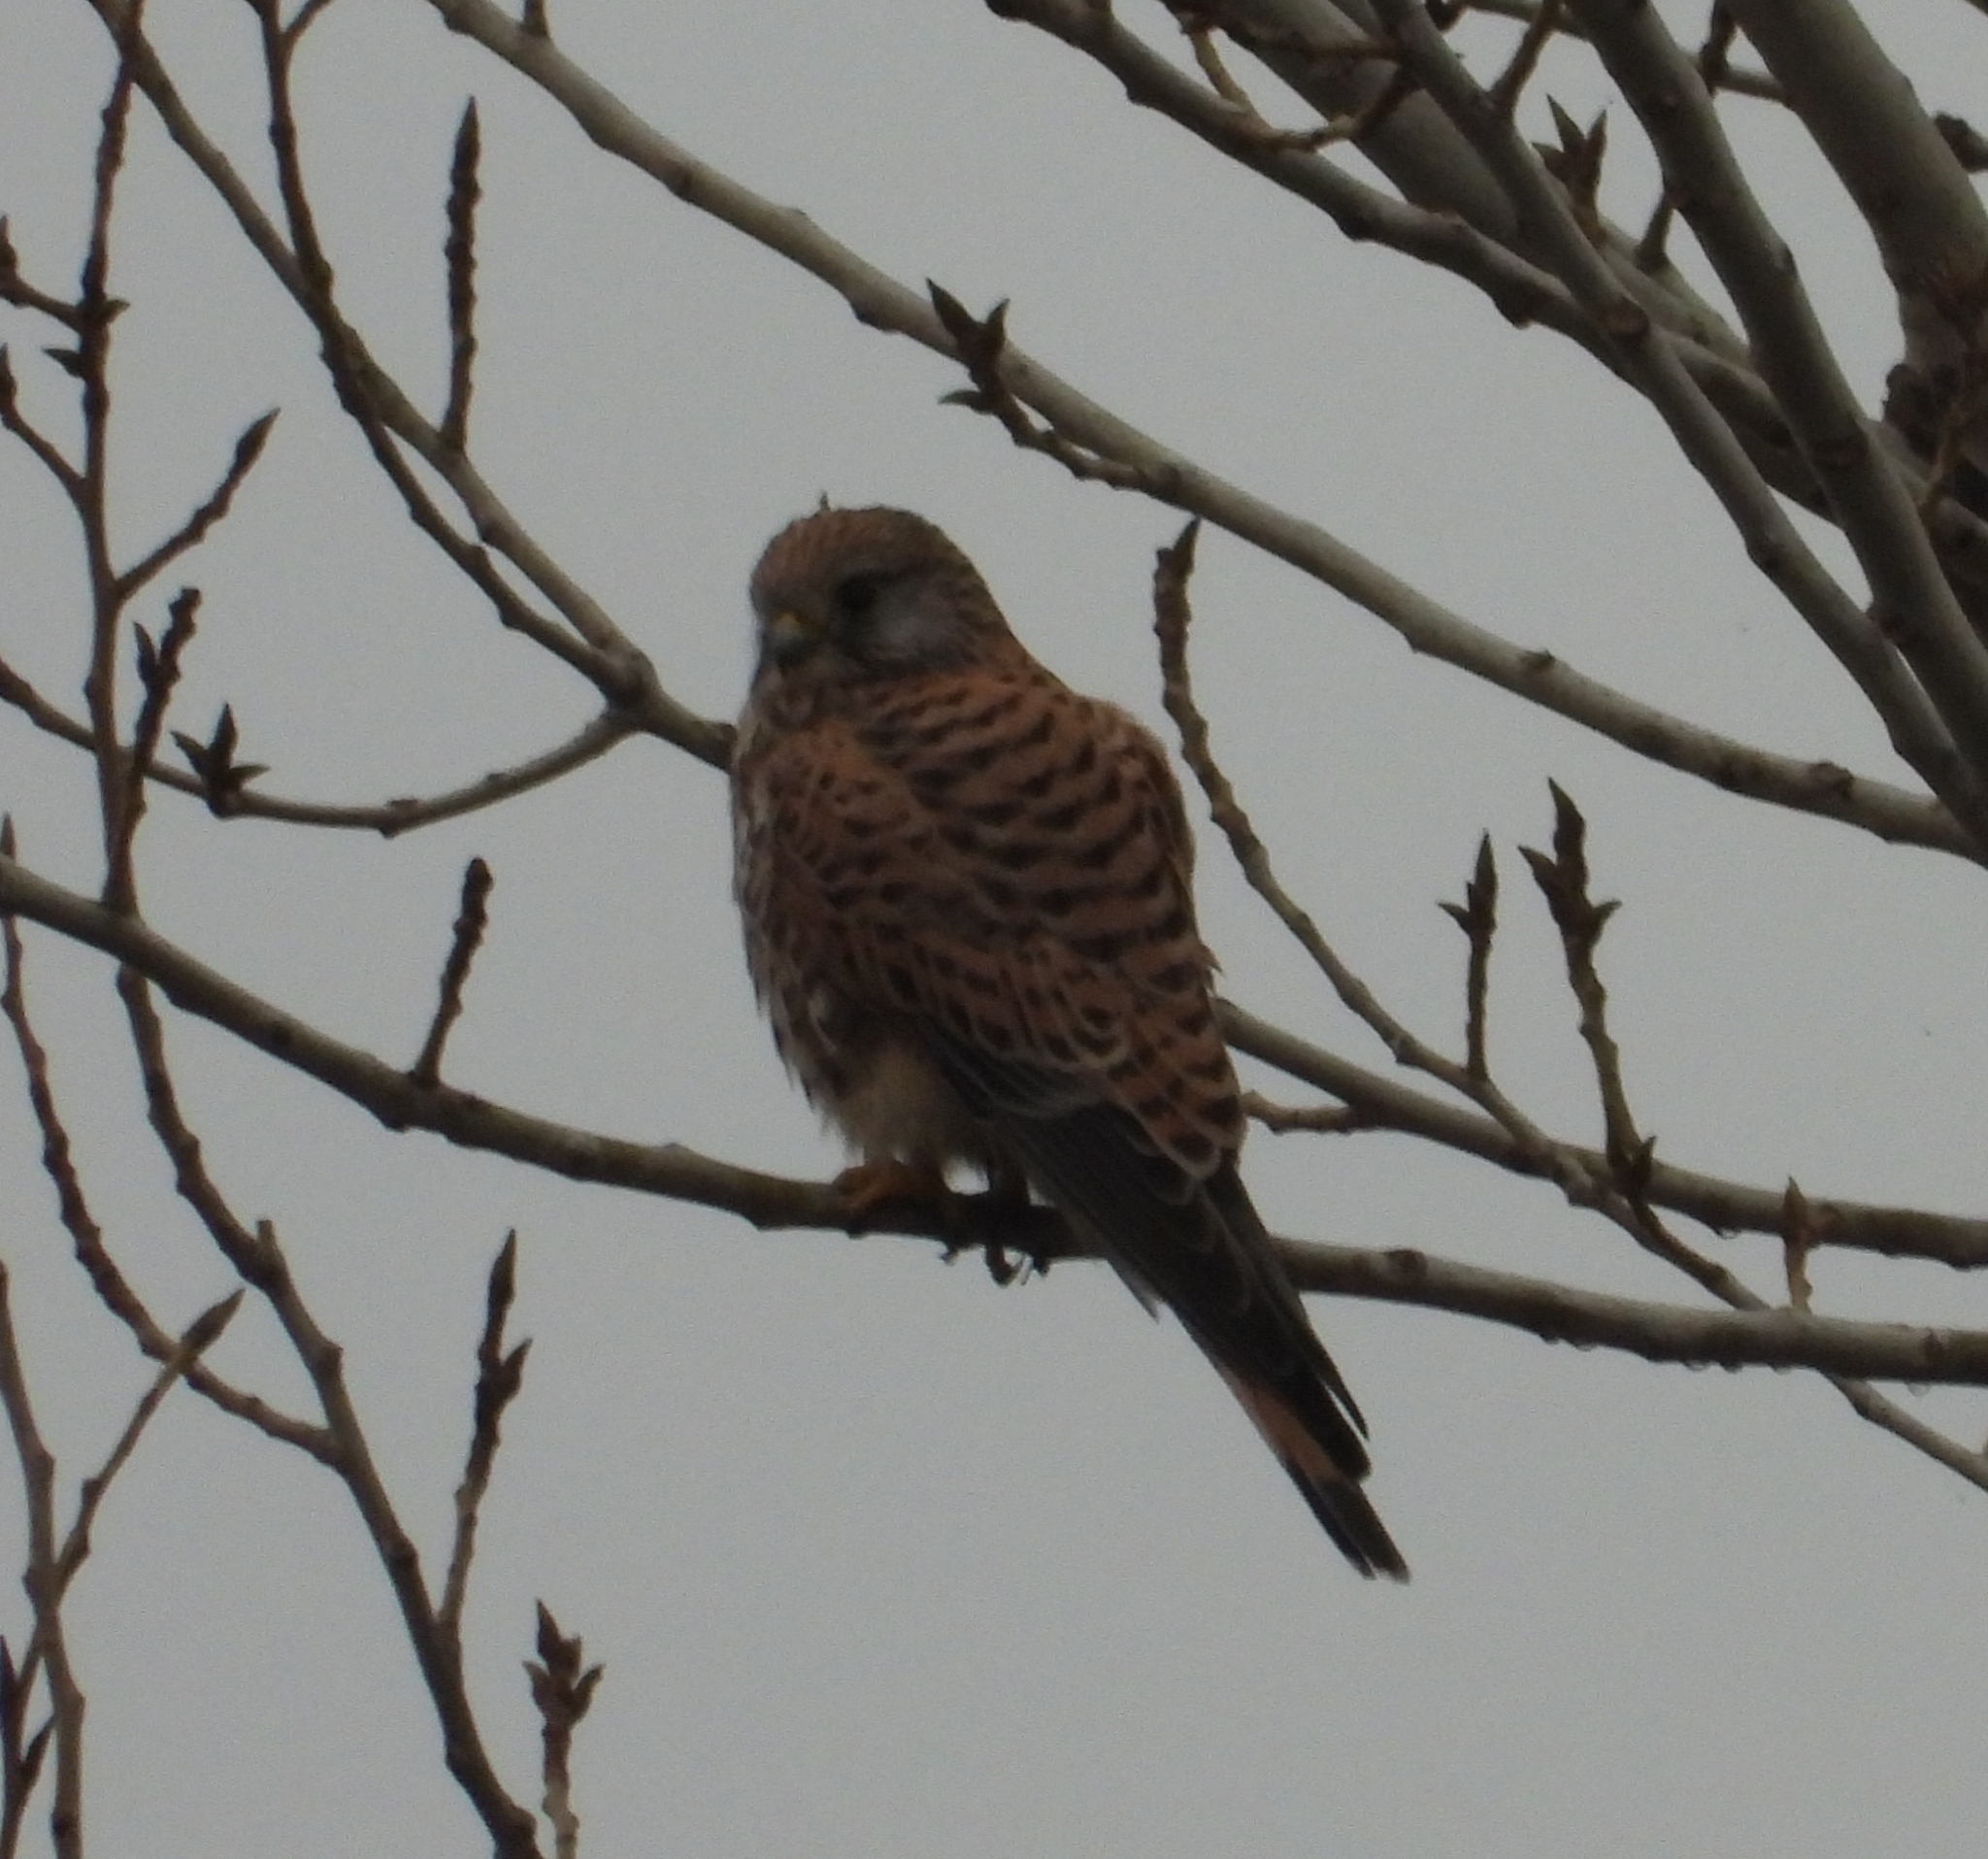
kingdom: Animalia
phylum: Chordata
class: Aves
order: Falconiformes
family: Falconidae
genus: Falco
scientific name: Falco tinnunculus
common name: Common kestrel
